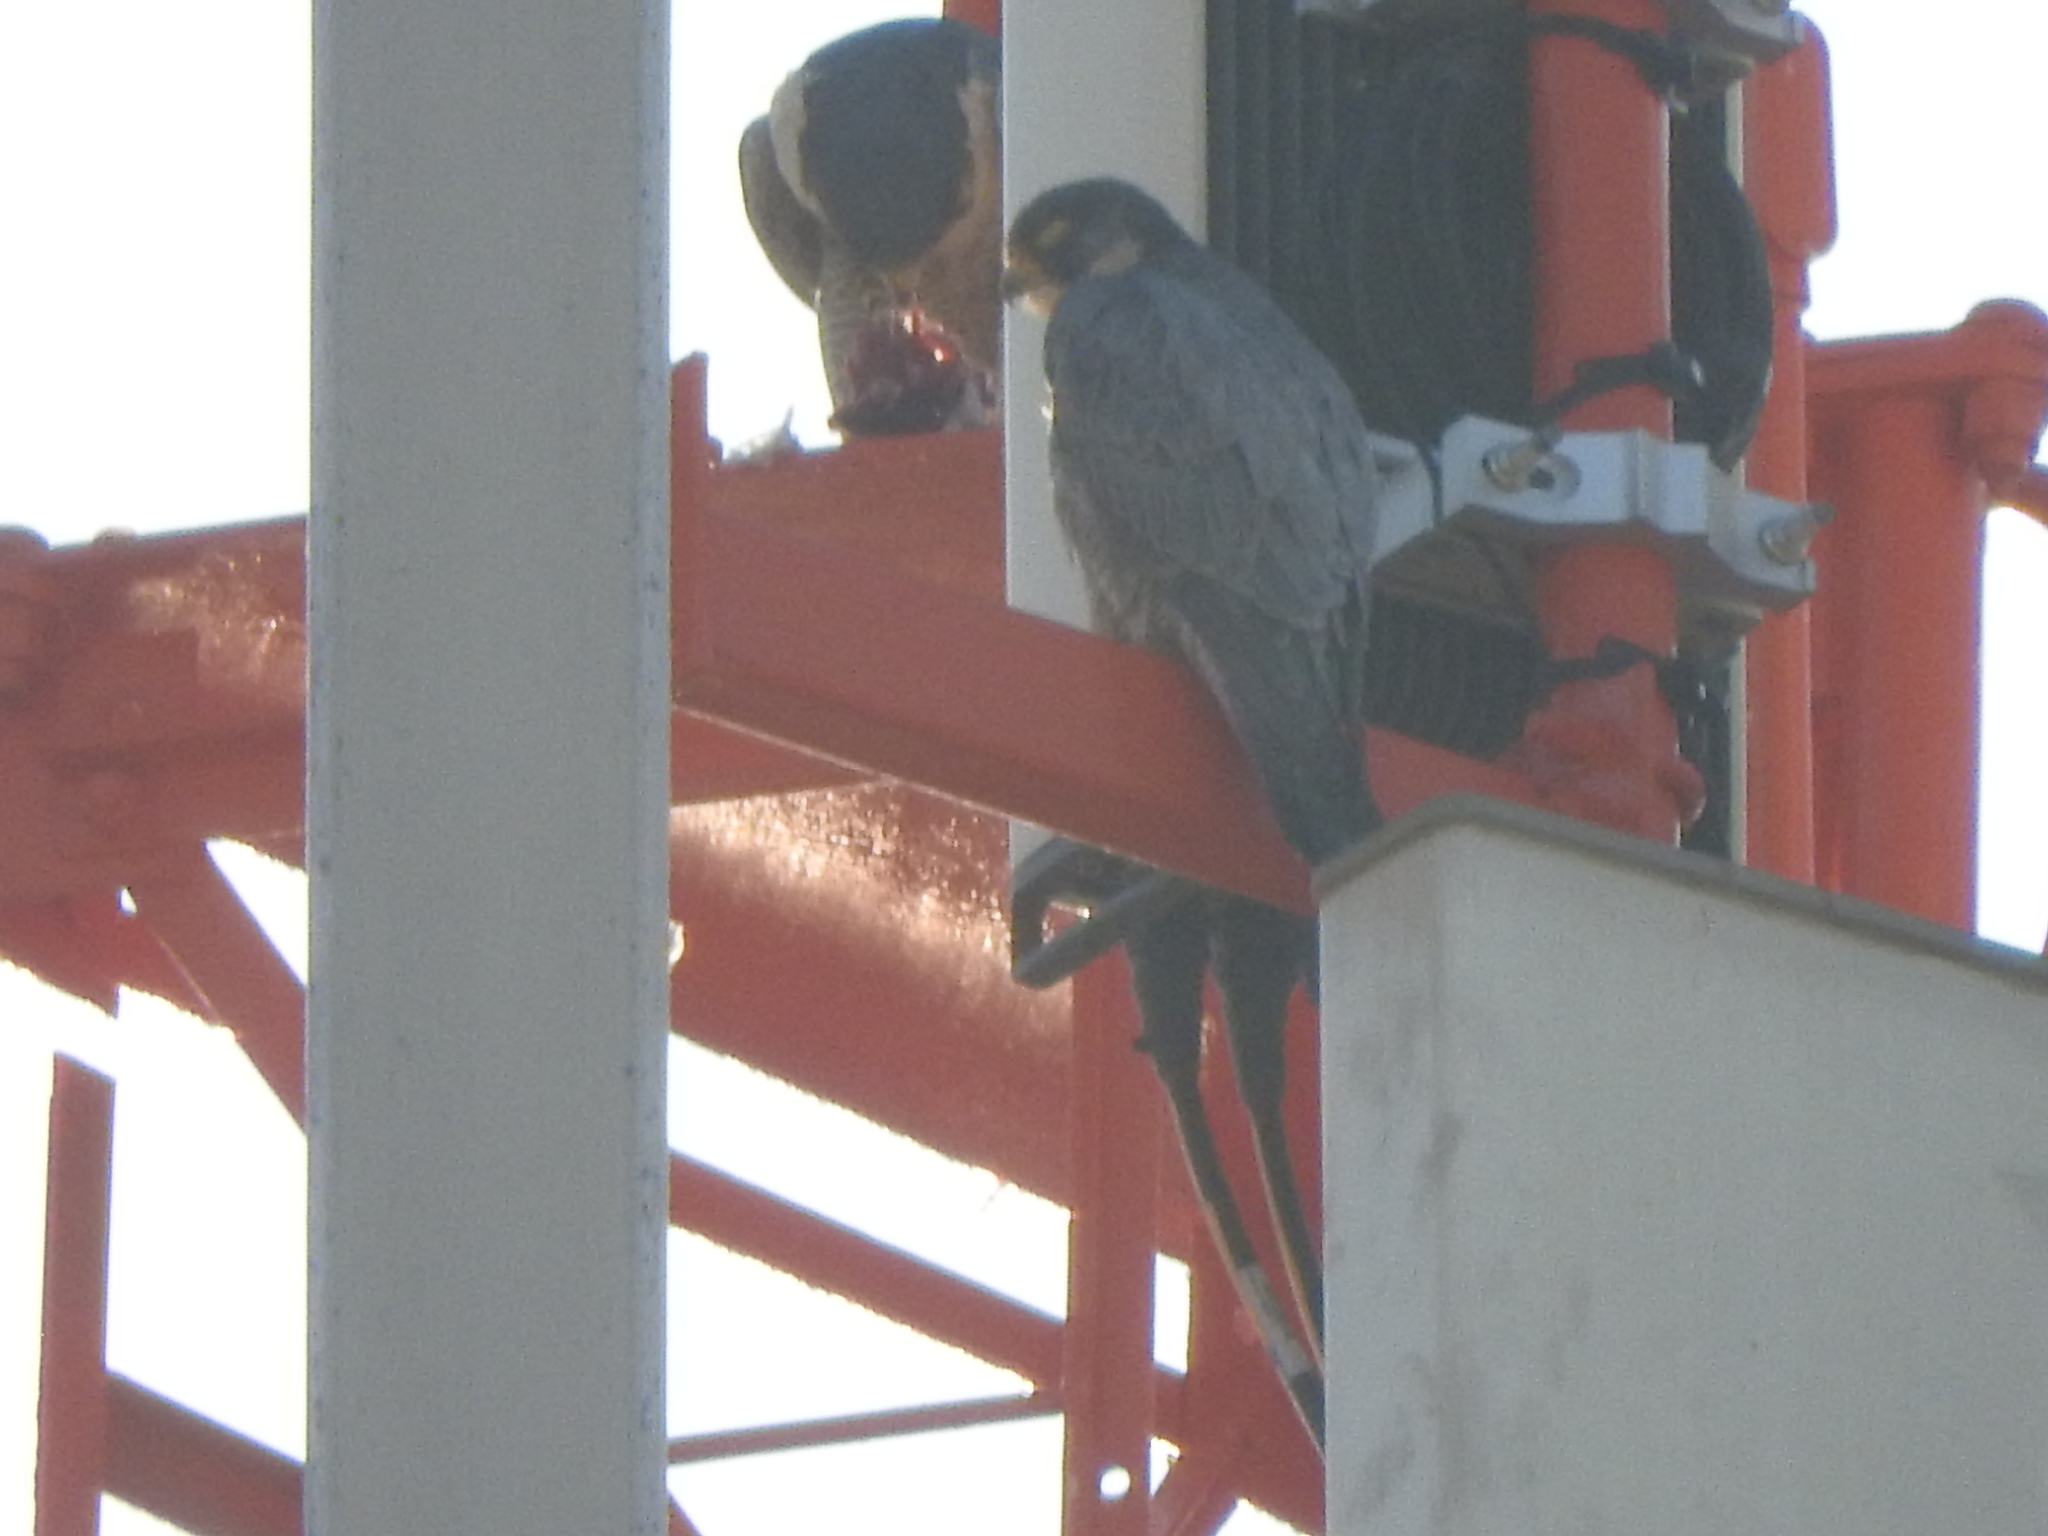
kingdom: Animalia
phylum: Chordata
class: Aves
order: Falconiformes
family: Falconidae
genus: Falco
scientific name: Falco peregrinus
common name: Peregrine falcon
